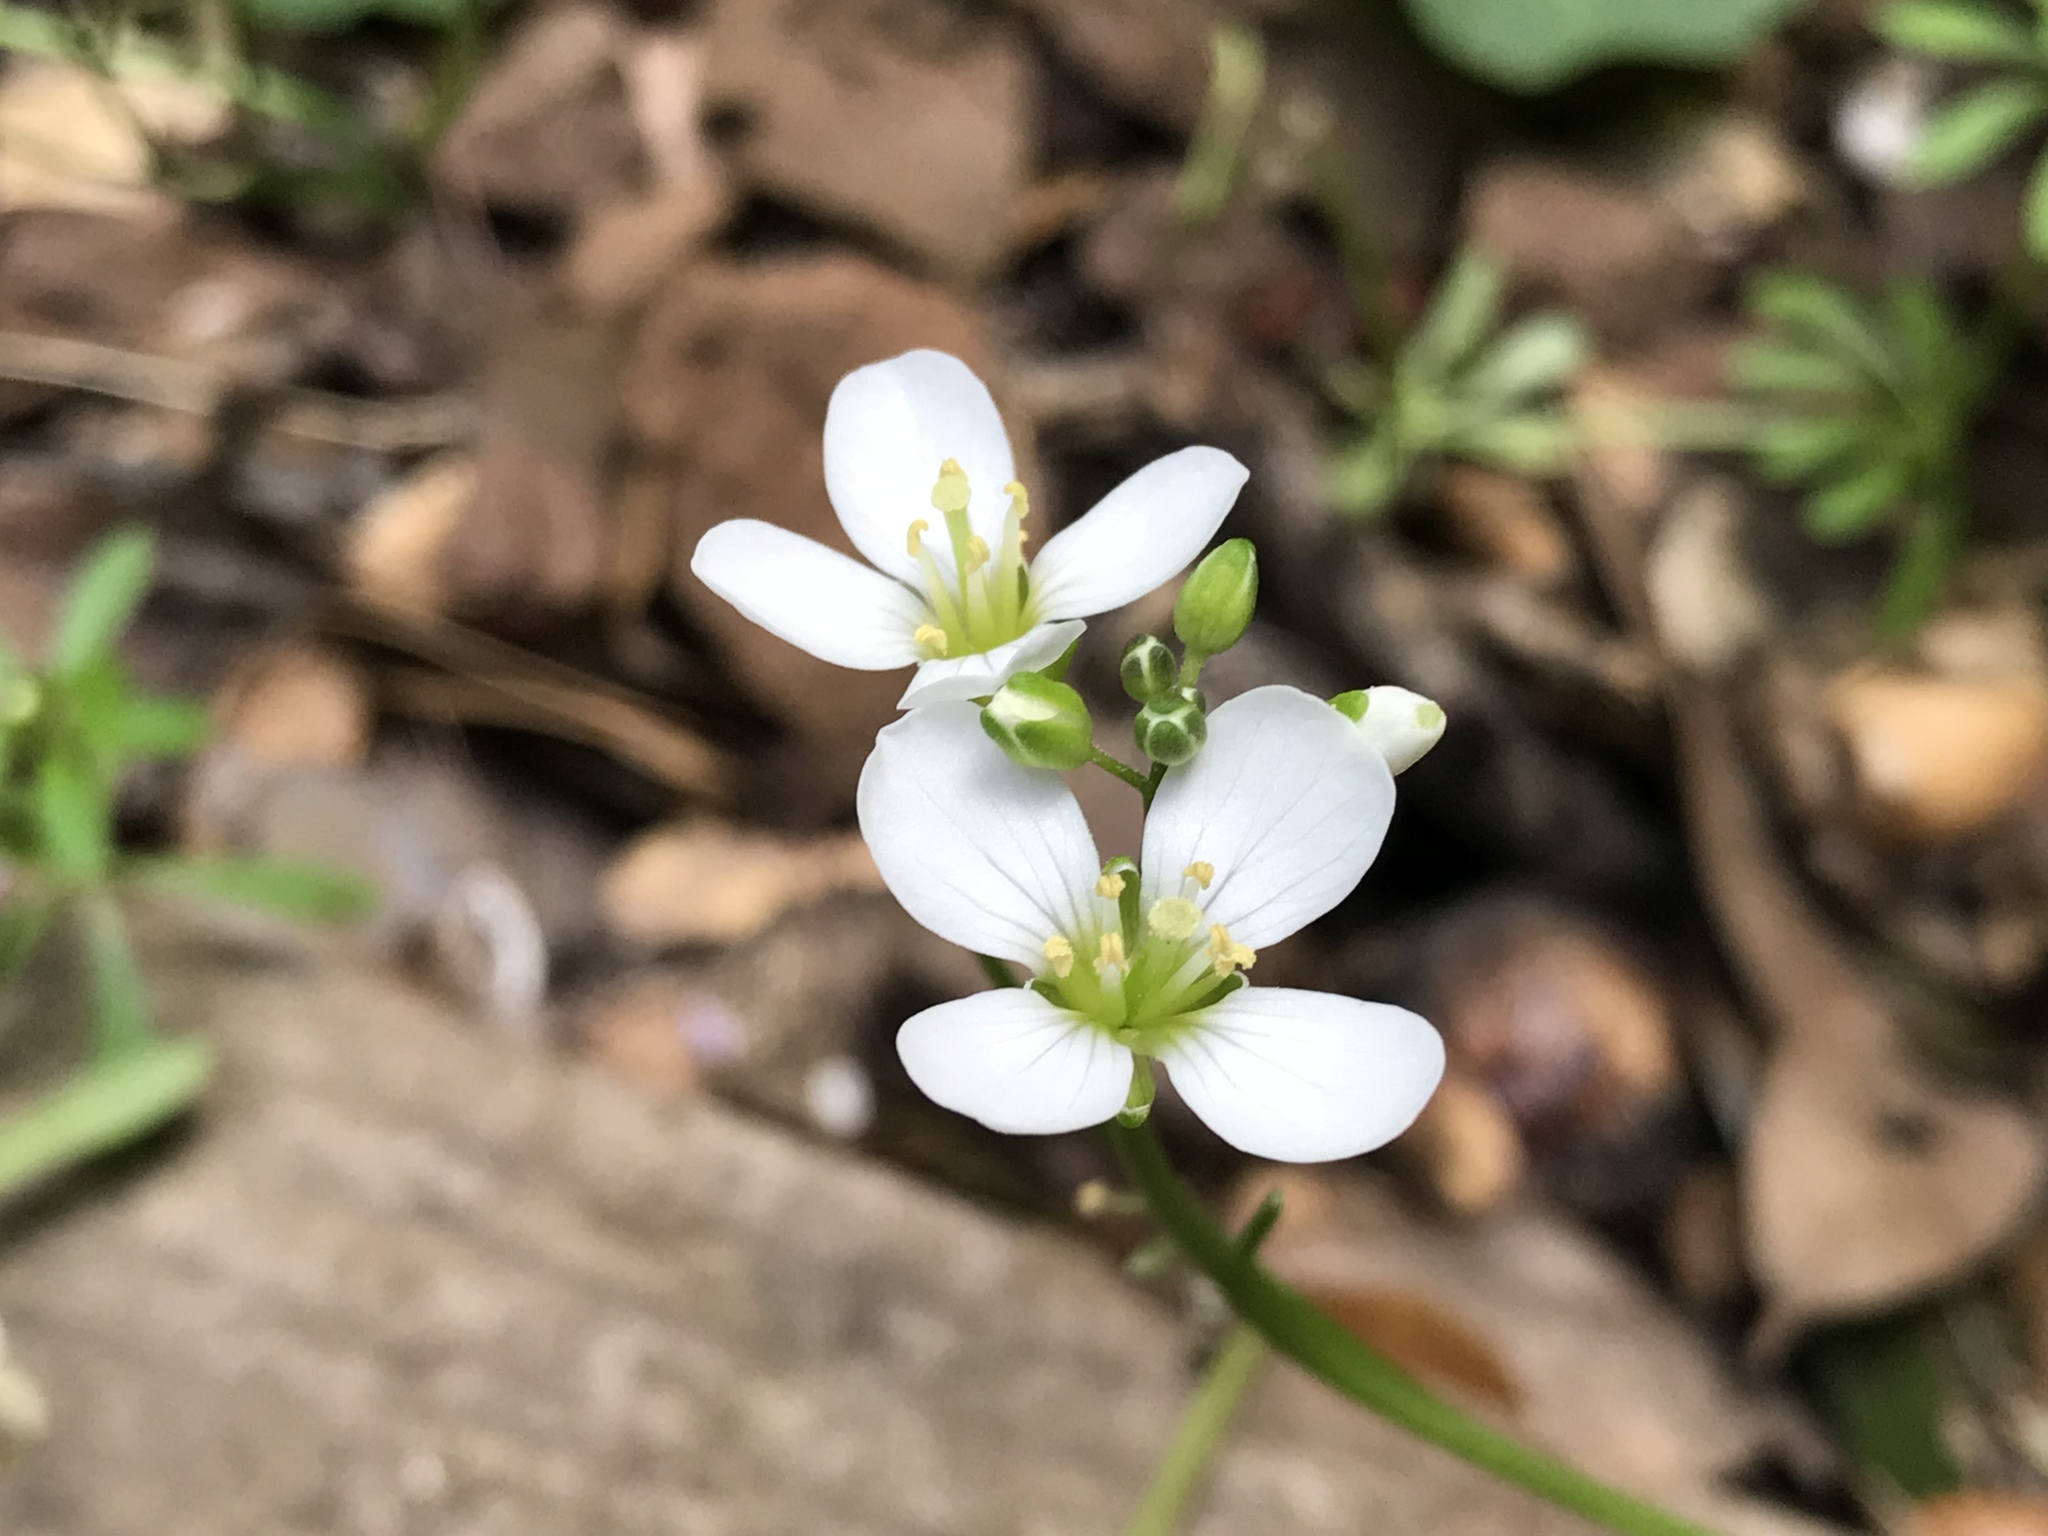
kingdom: Plantae
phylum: Tracheophyta
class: Magnoliopsida
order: Brassicales
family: Brassicaceae
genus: Cardamine
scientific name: Cardamine californica
